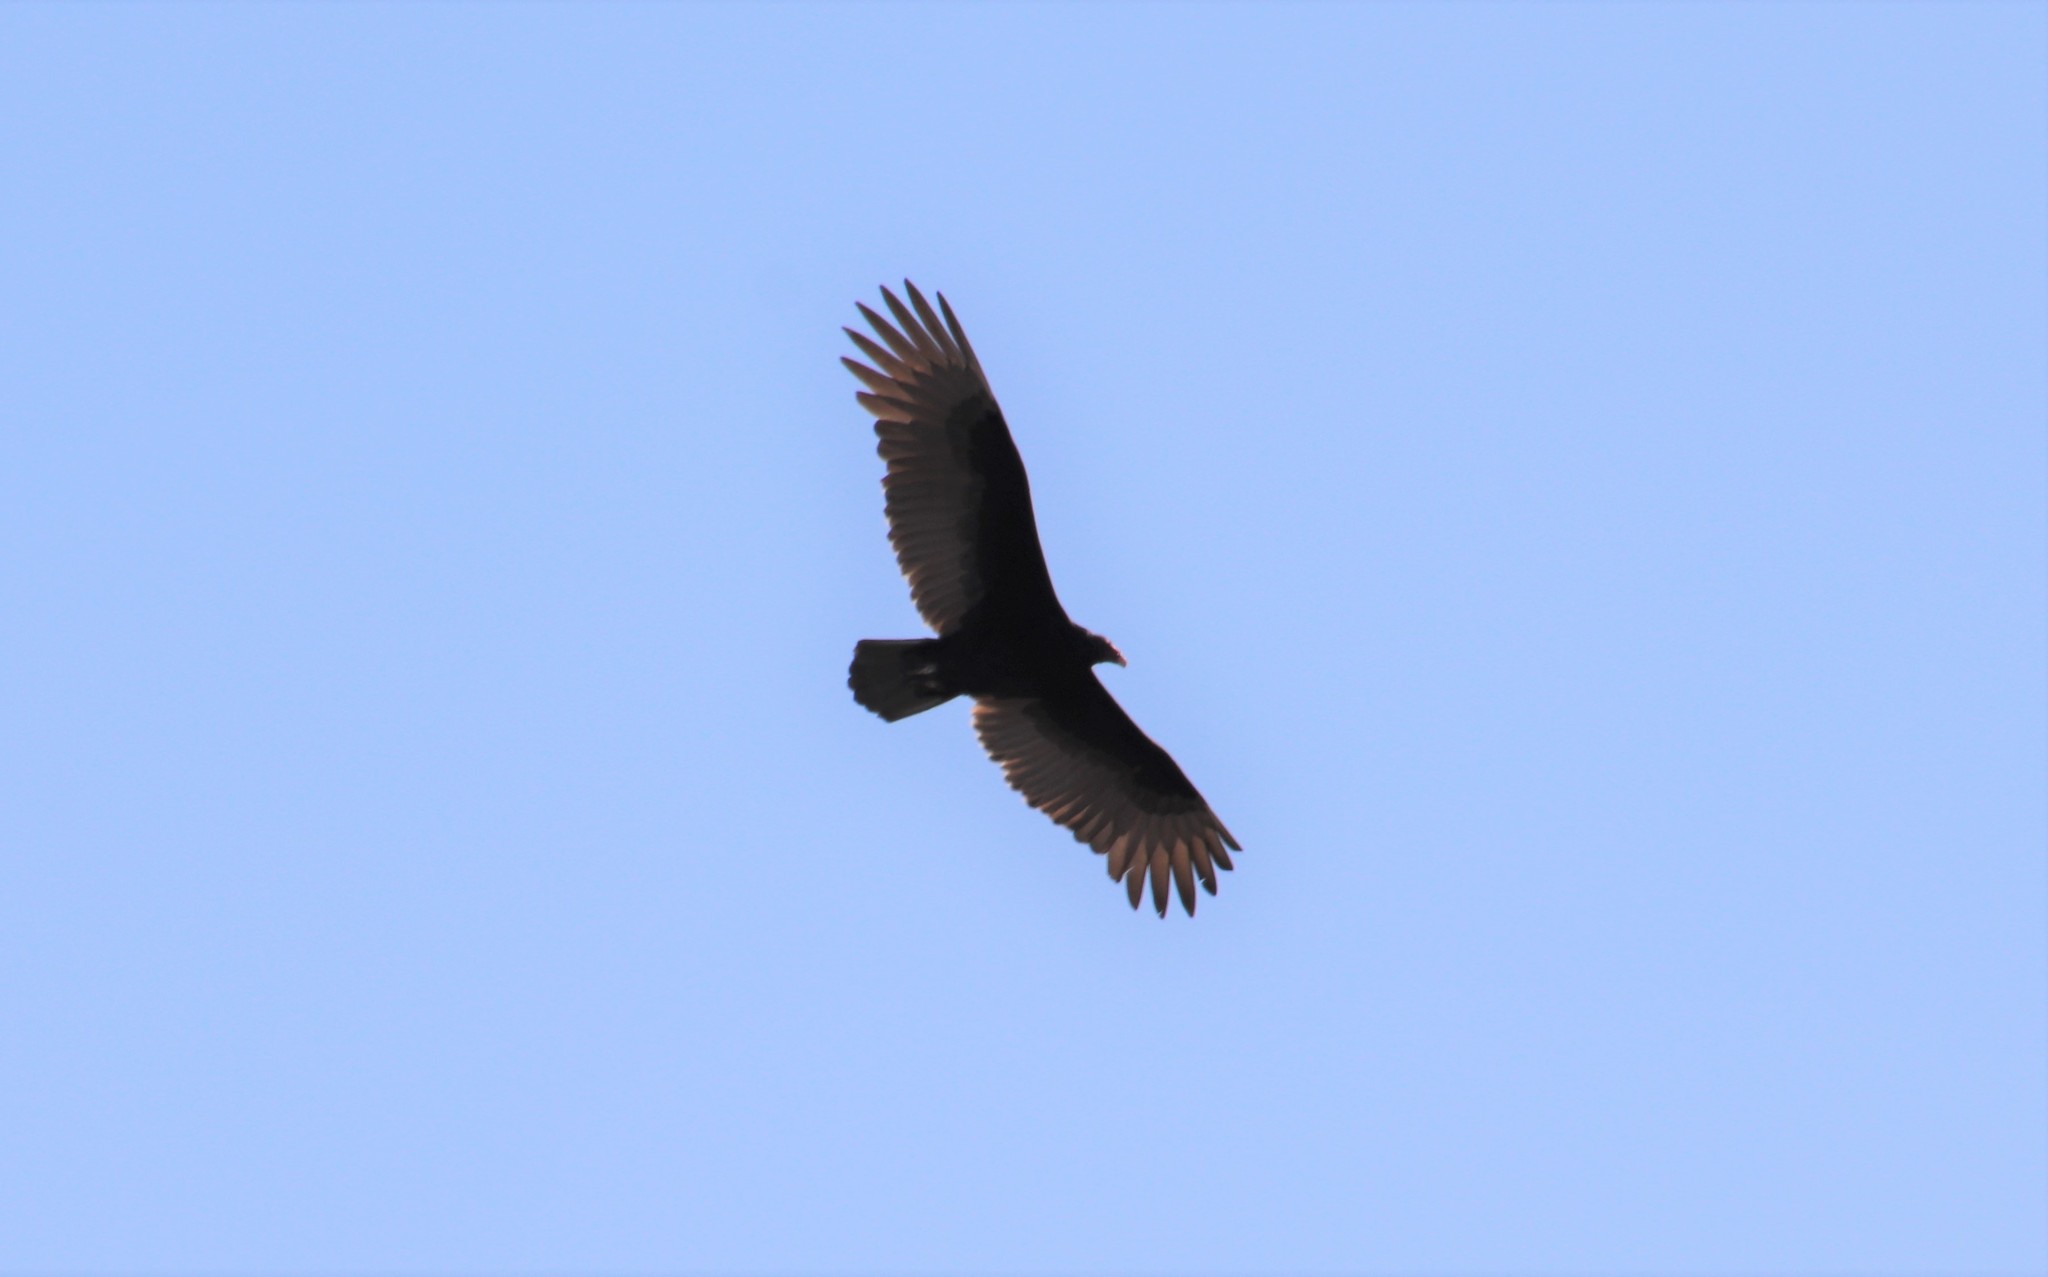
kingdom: Animalia
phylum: Chordata
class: Aves
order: Accipitriformes
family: Cathartidae
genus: Cathartes
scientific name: Cathartes aura
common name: Turkey vulture
